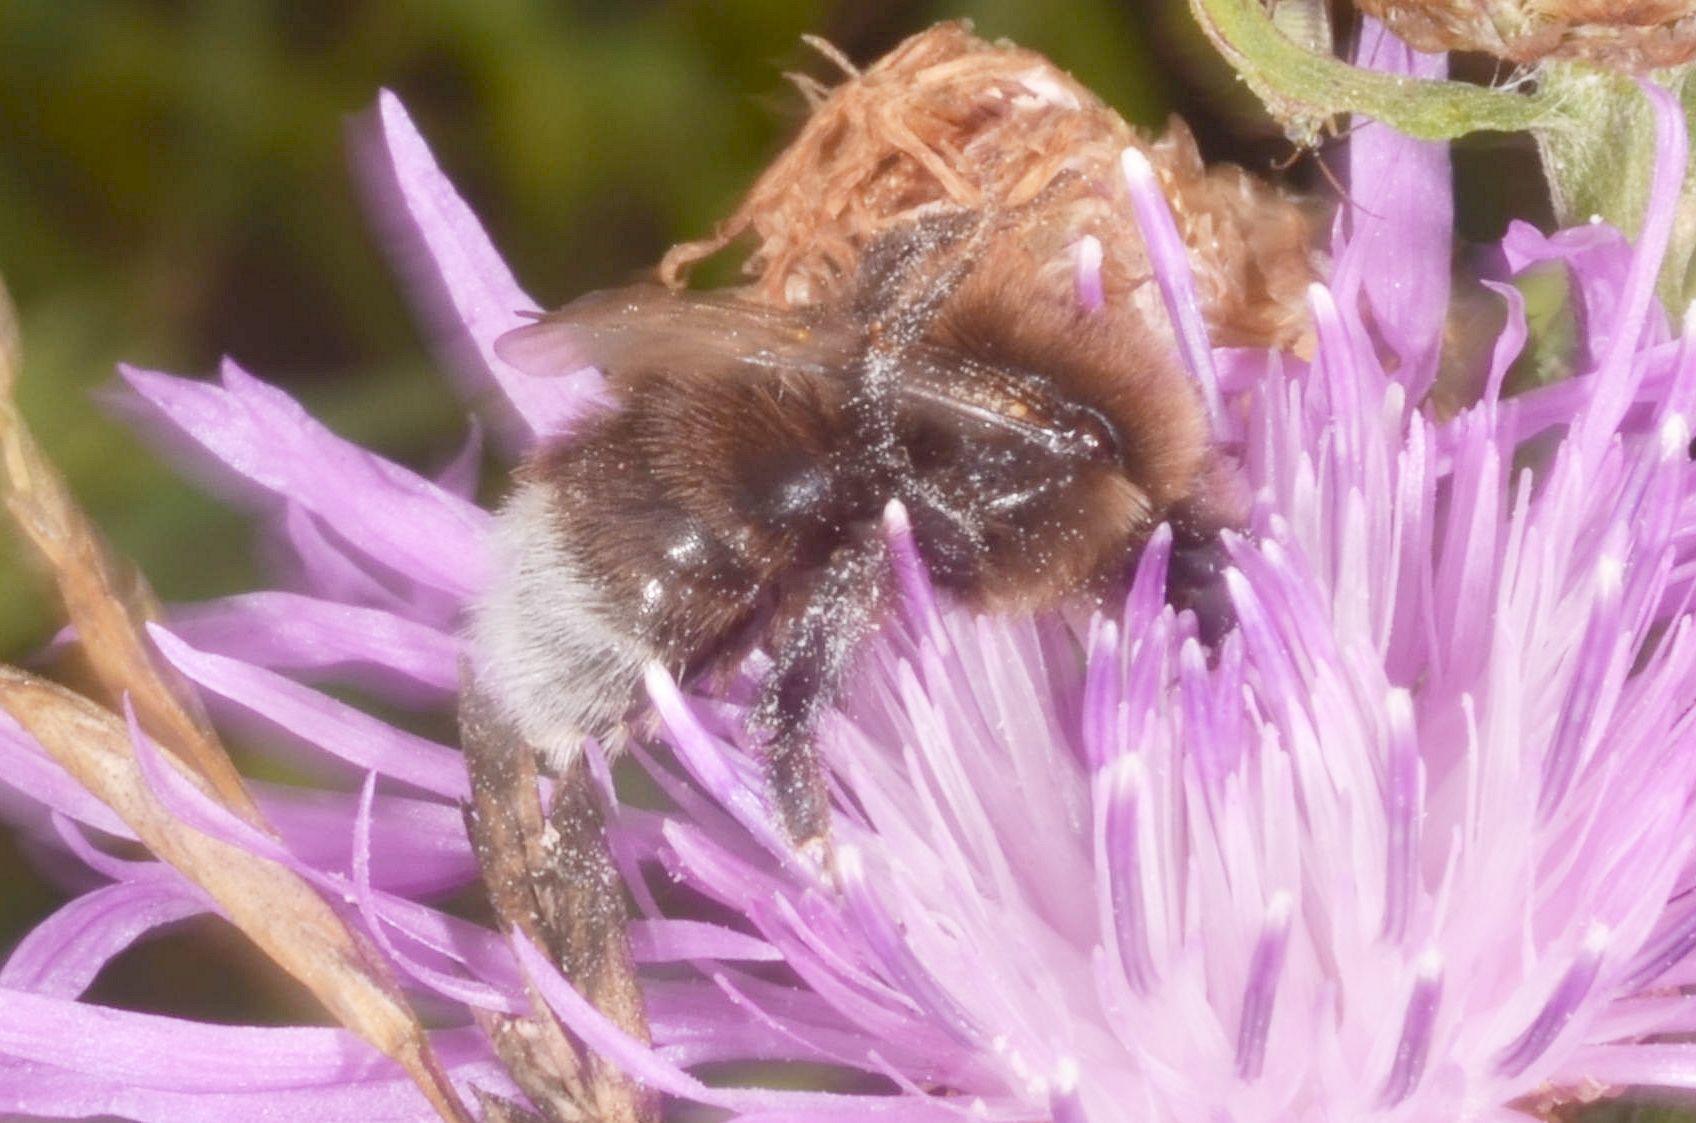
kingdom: Animalia
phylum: Arthropoda
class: Insecta
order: Hymenoptera
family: Apidae
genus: Bombus
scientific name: Bombus hypnorum
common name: New garden bumblebee
